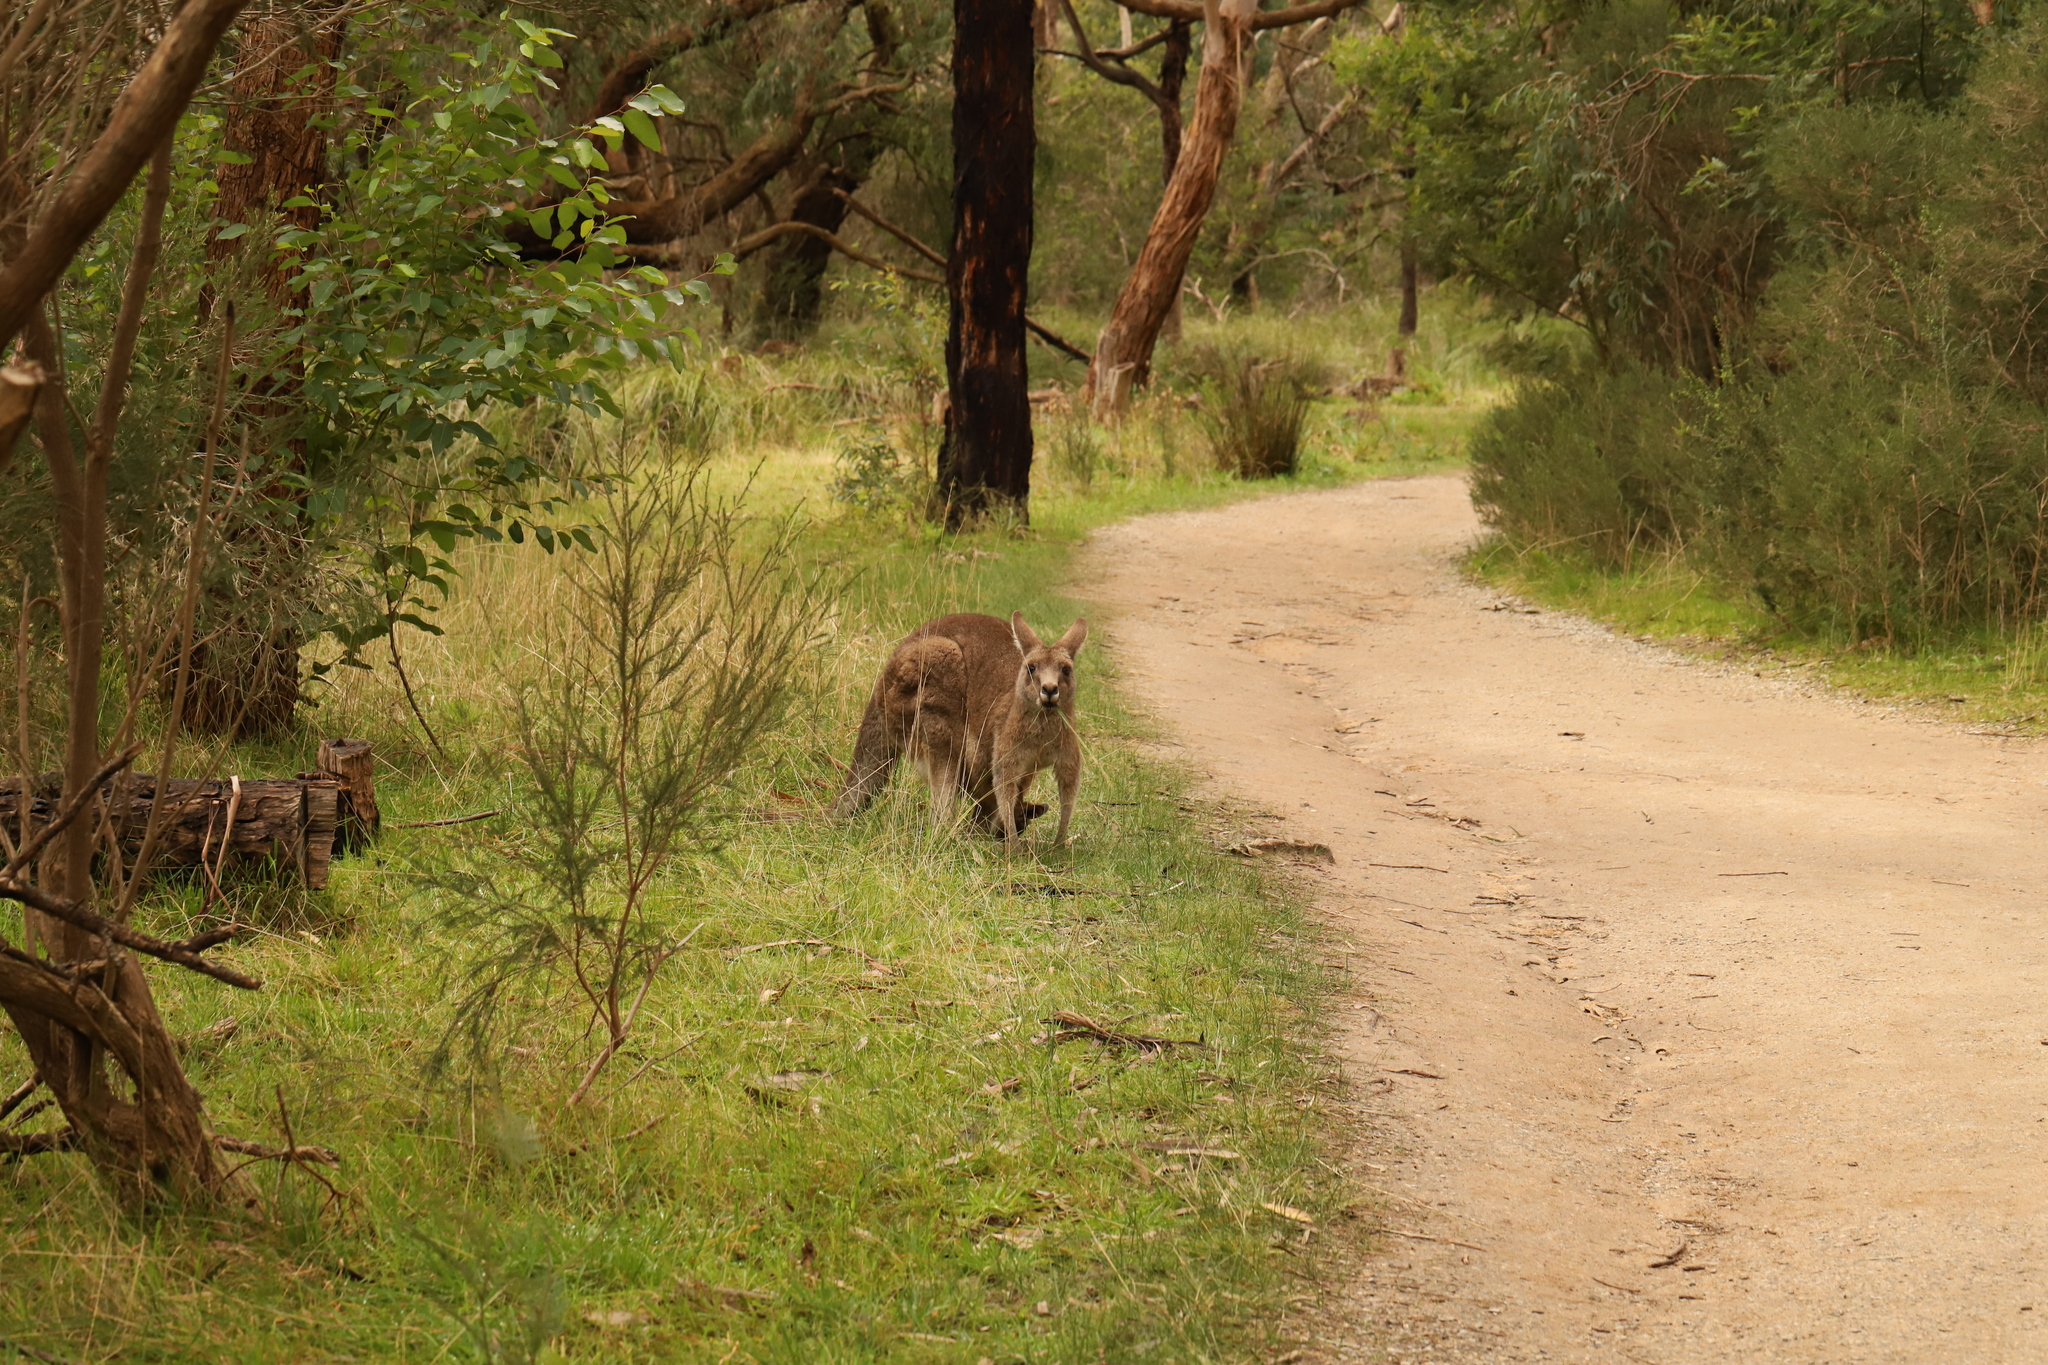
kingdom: Animalia
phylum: Chordata
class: Mammalia
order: Diprotodontia
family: Macropodidae
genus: Macropus
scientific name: Macropus giganteus
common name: Eastern grey kangaroo
